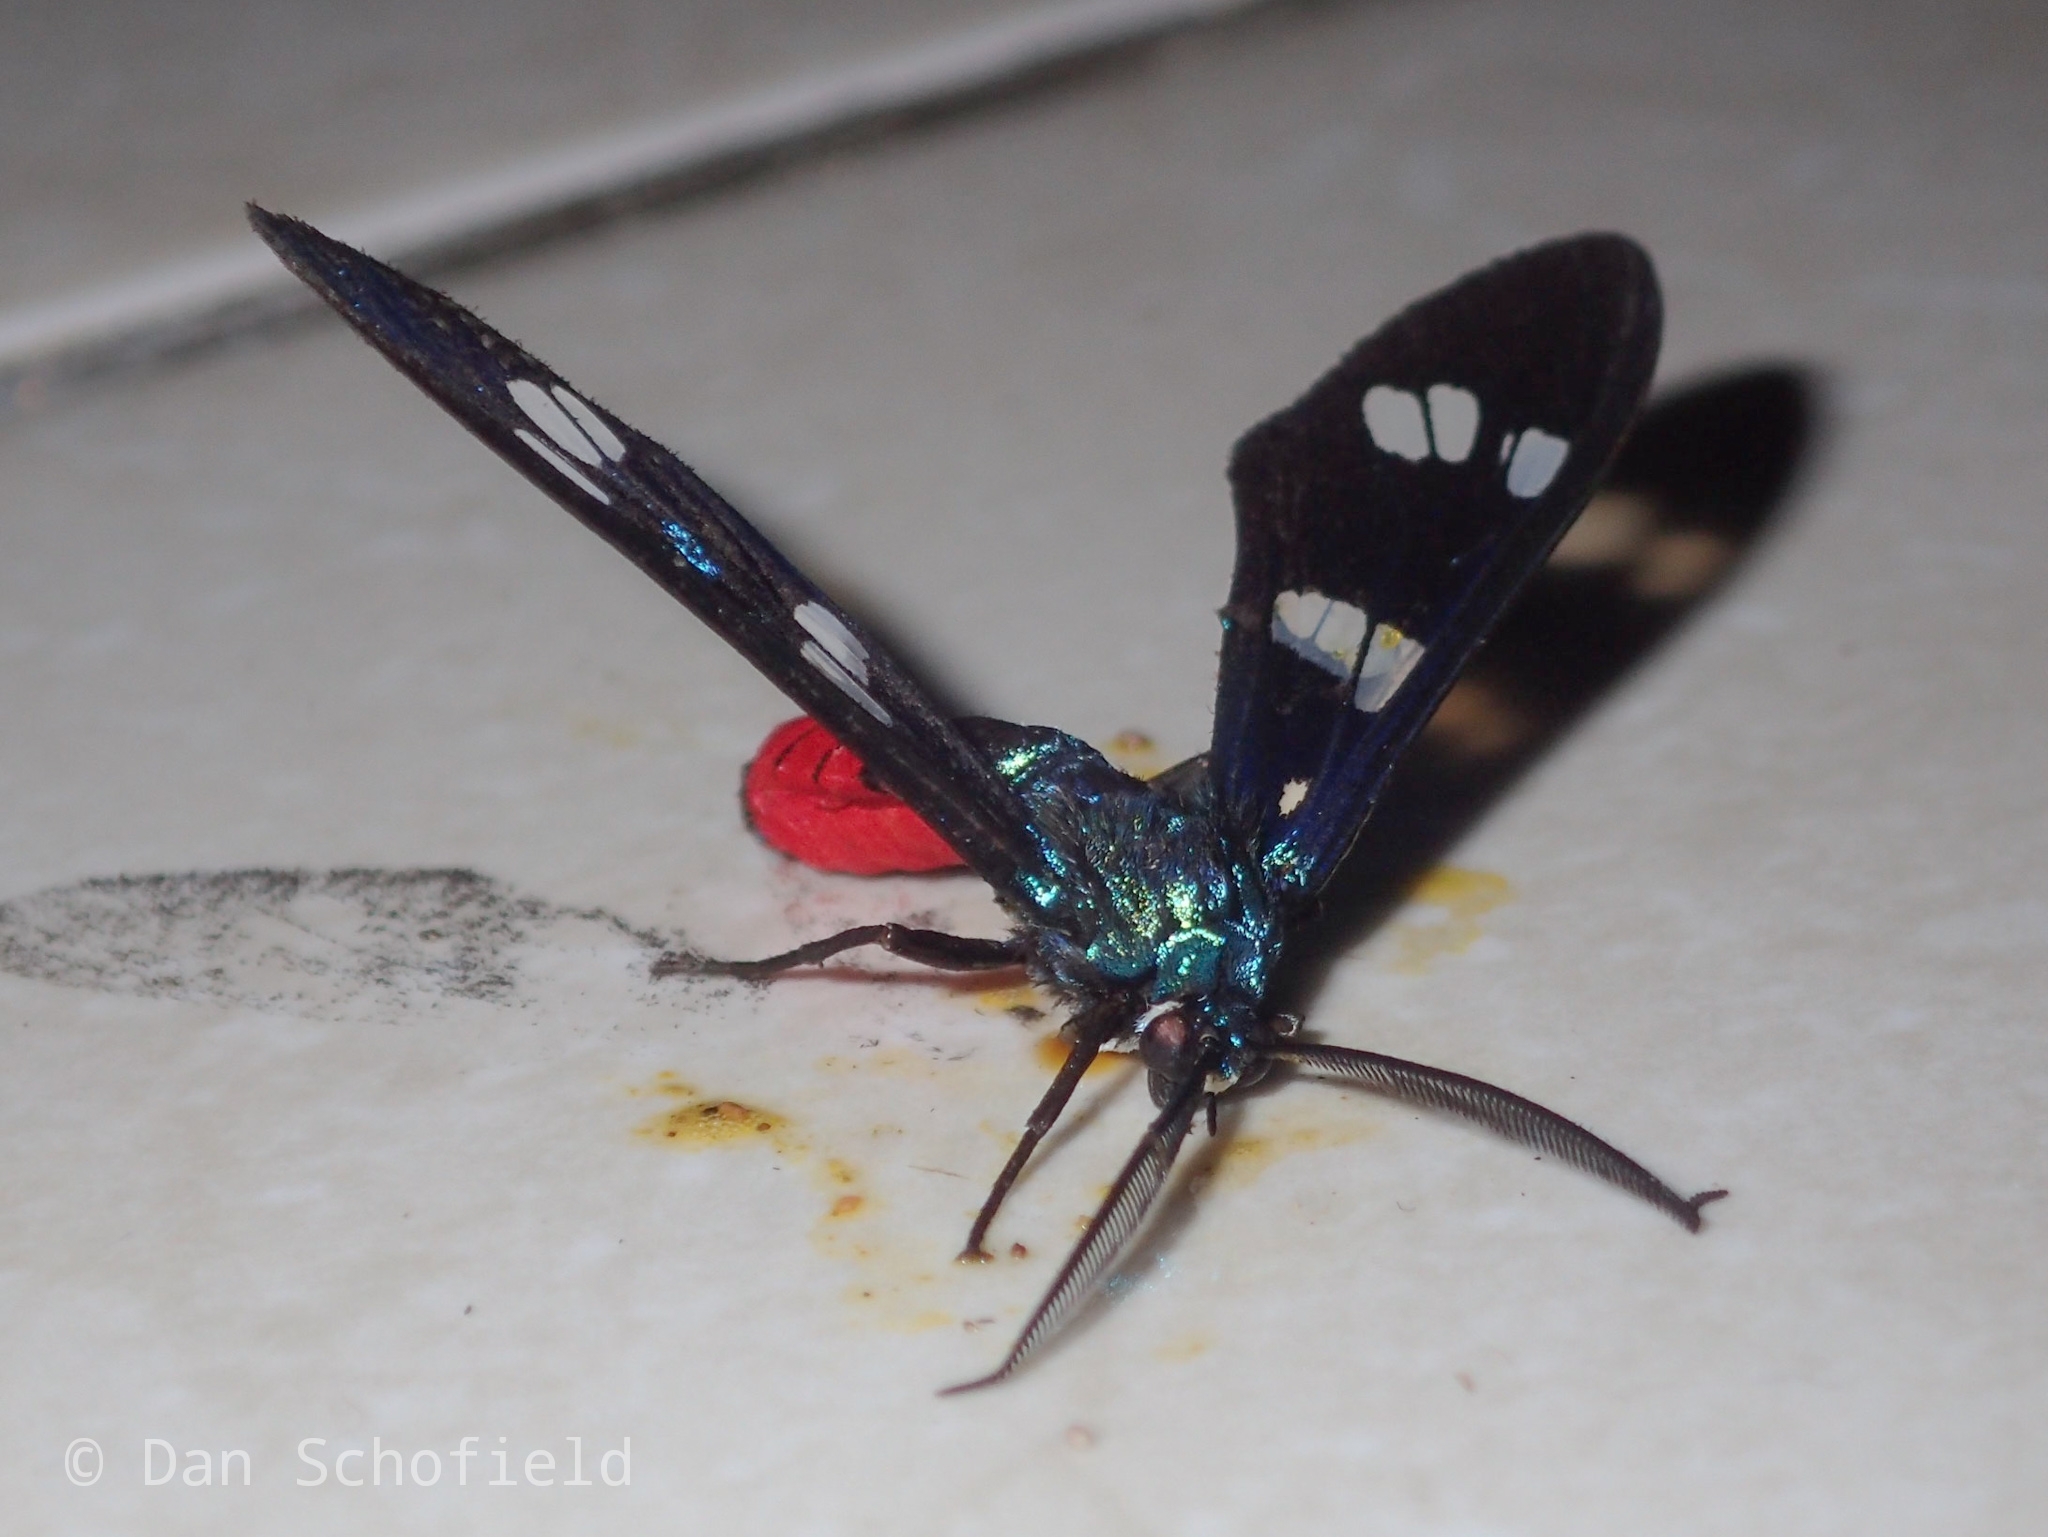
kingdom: Animalia
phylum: Arthropoda
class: Insecta
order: Lepidoptera
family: Erebidae
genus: Euchromia
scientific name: Euchromia creusa
